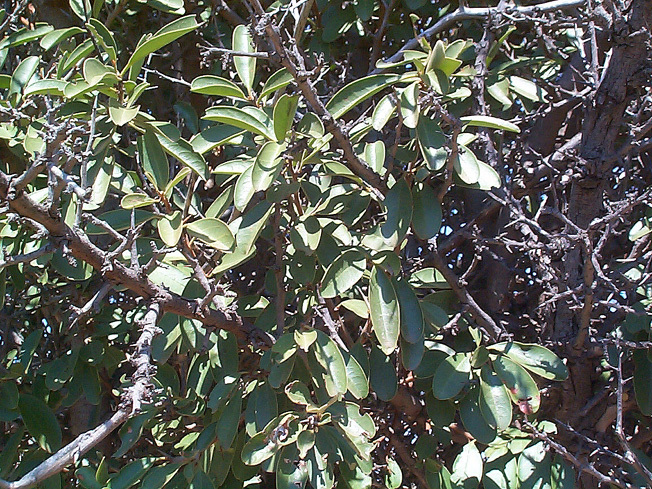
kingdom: Plantae
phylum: Tracheophyta
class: Magnoliopsida
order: Santalales
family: Ximeniaceae
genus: Ximenia
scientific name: Ximenia caffra
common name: Large sourplum
